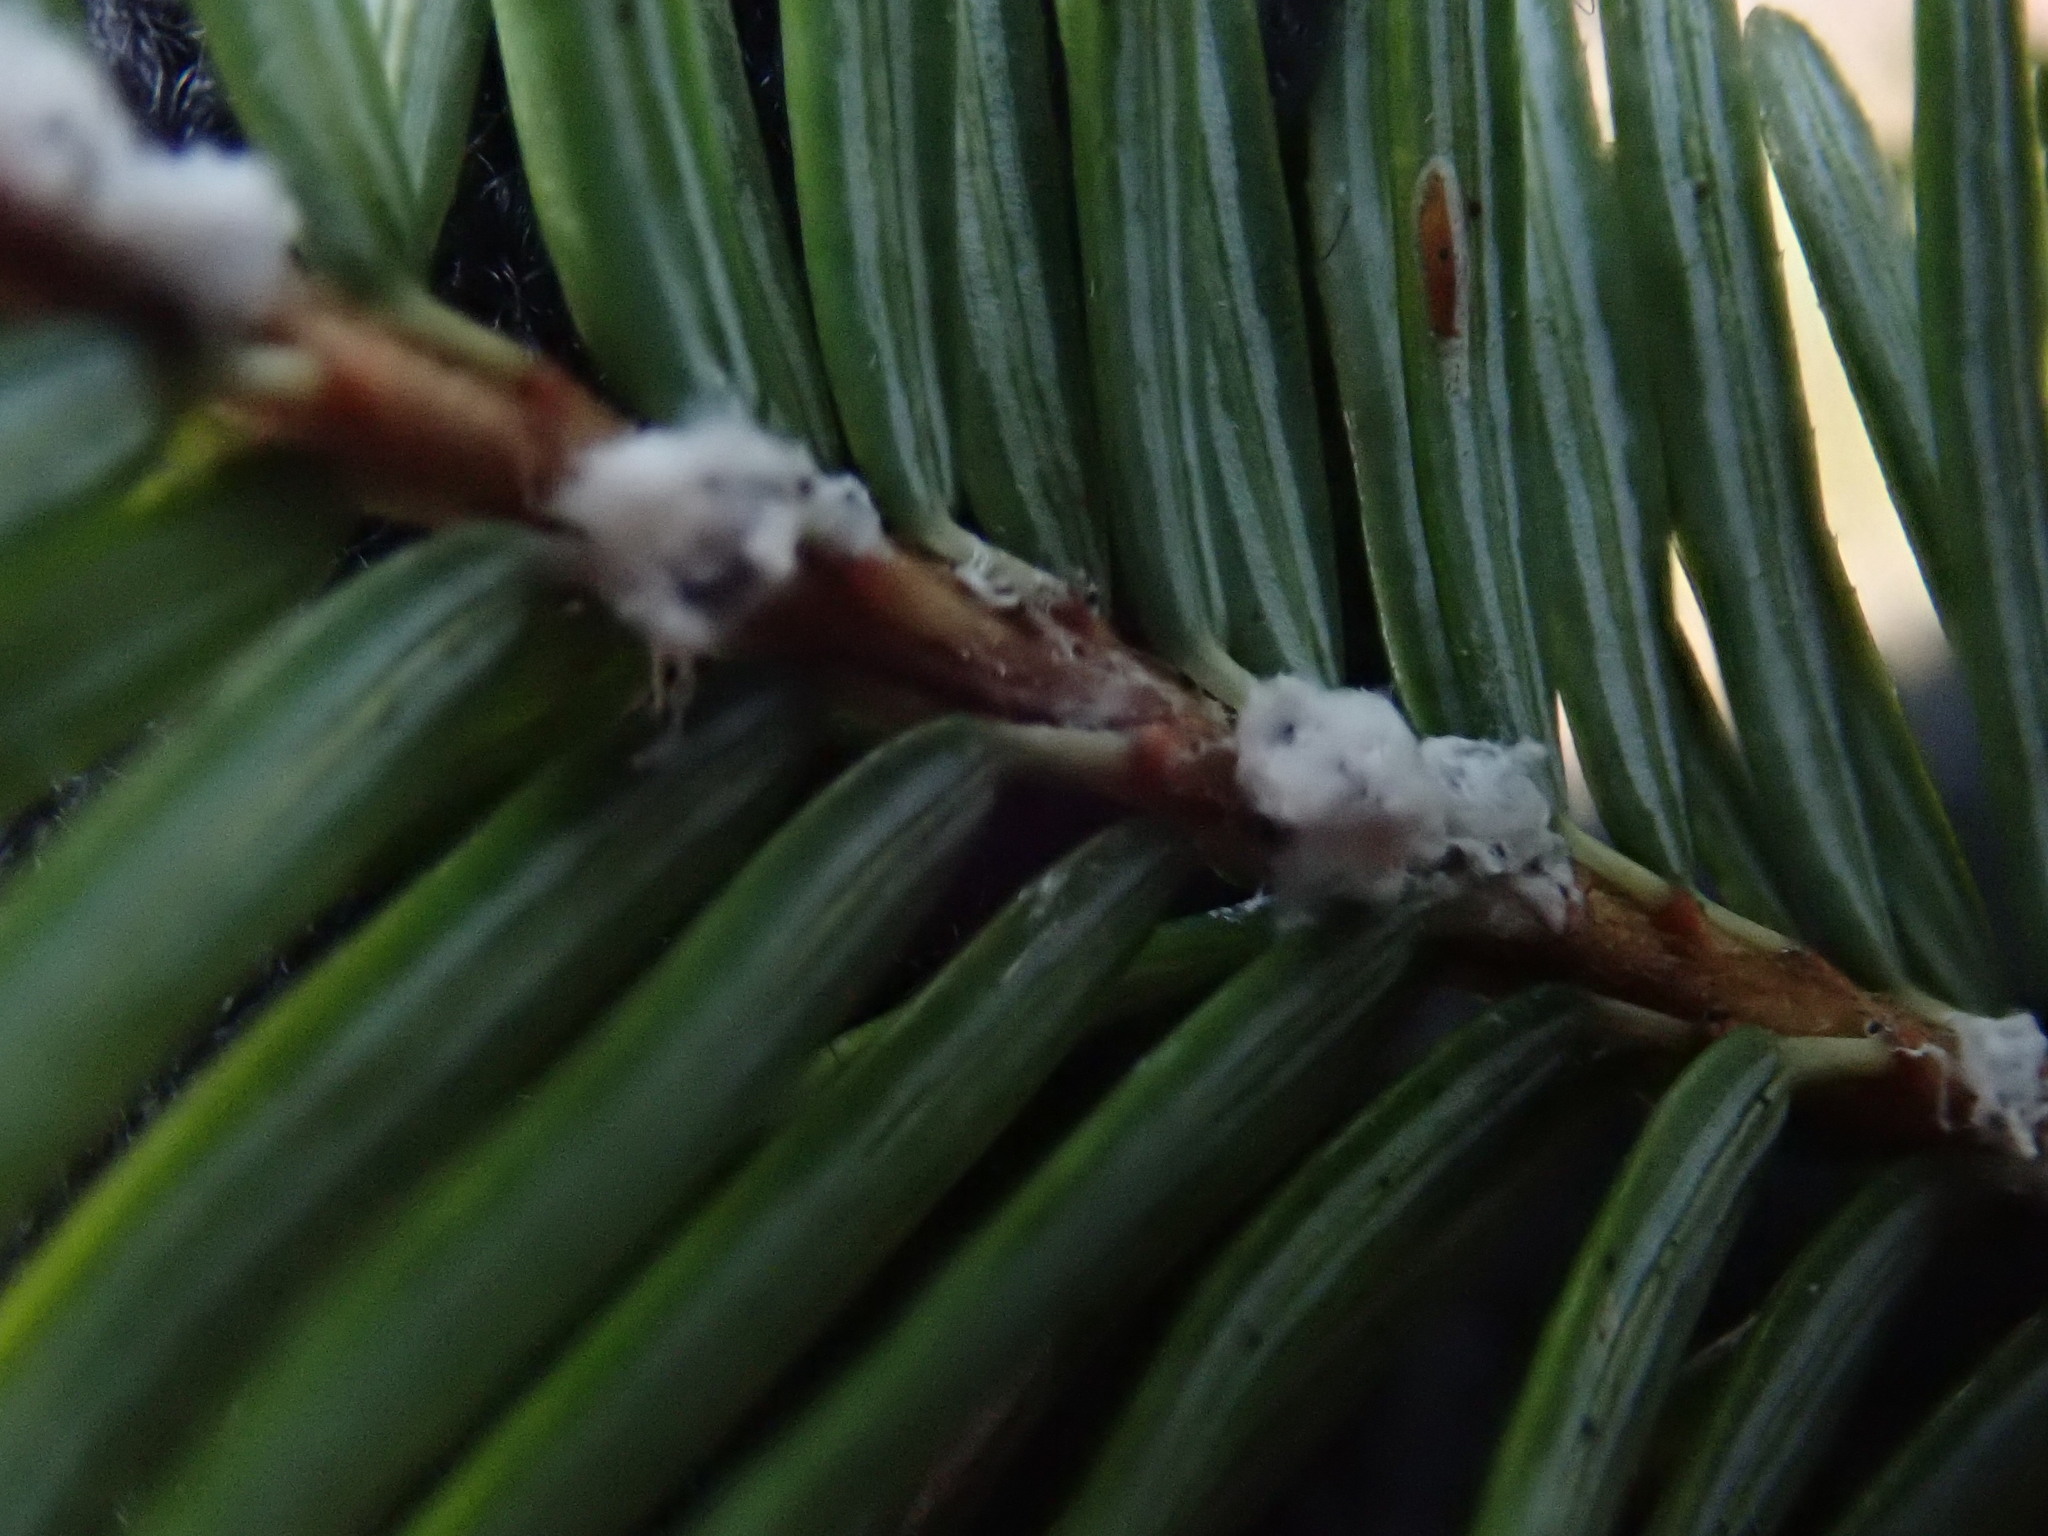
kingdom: Animalia
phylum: Arthropoda
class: Insecta
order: Hemiptera
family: Adelgidae
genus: Adelges
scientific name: Adelges tsugae
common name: Hemlock woolly adelgid
